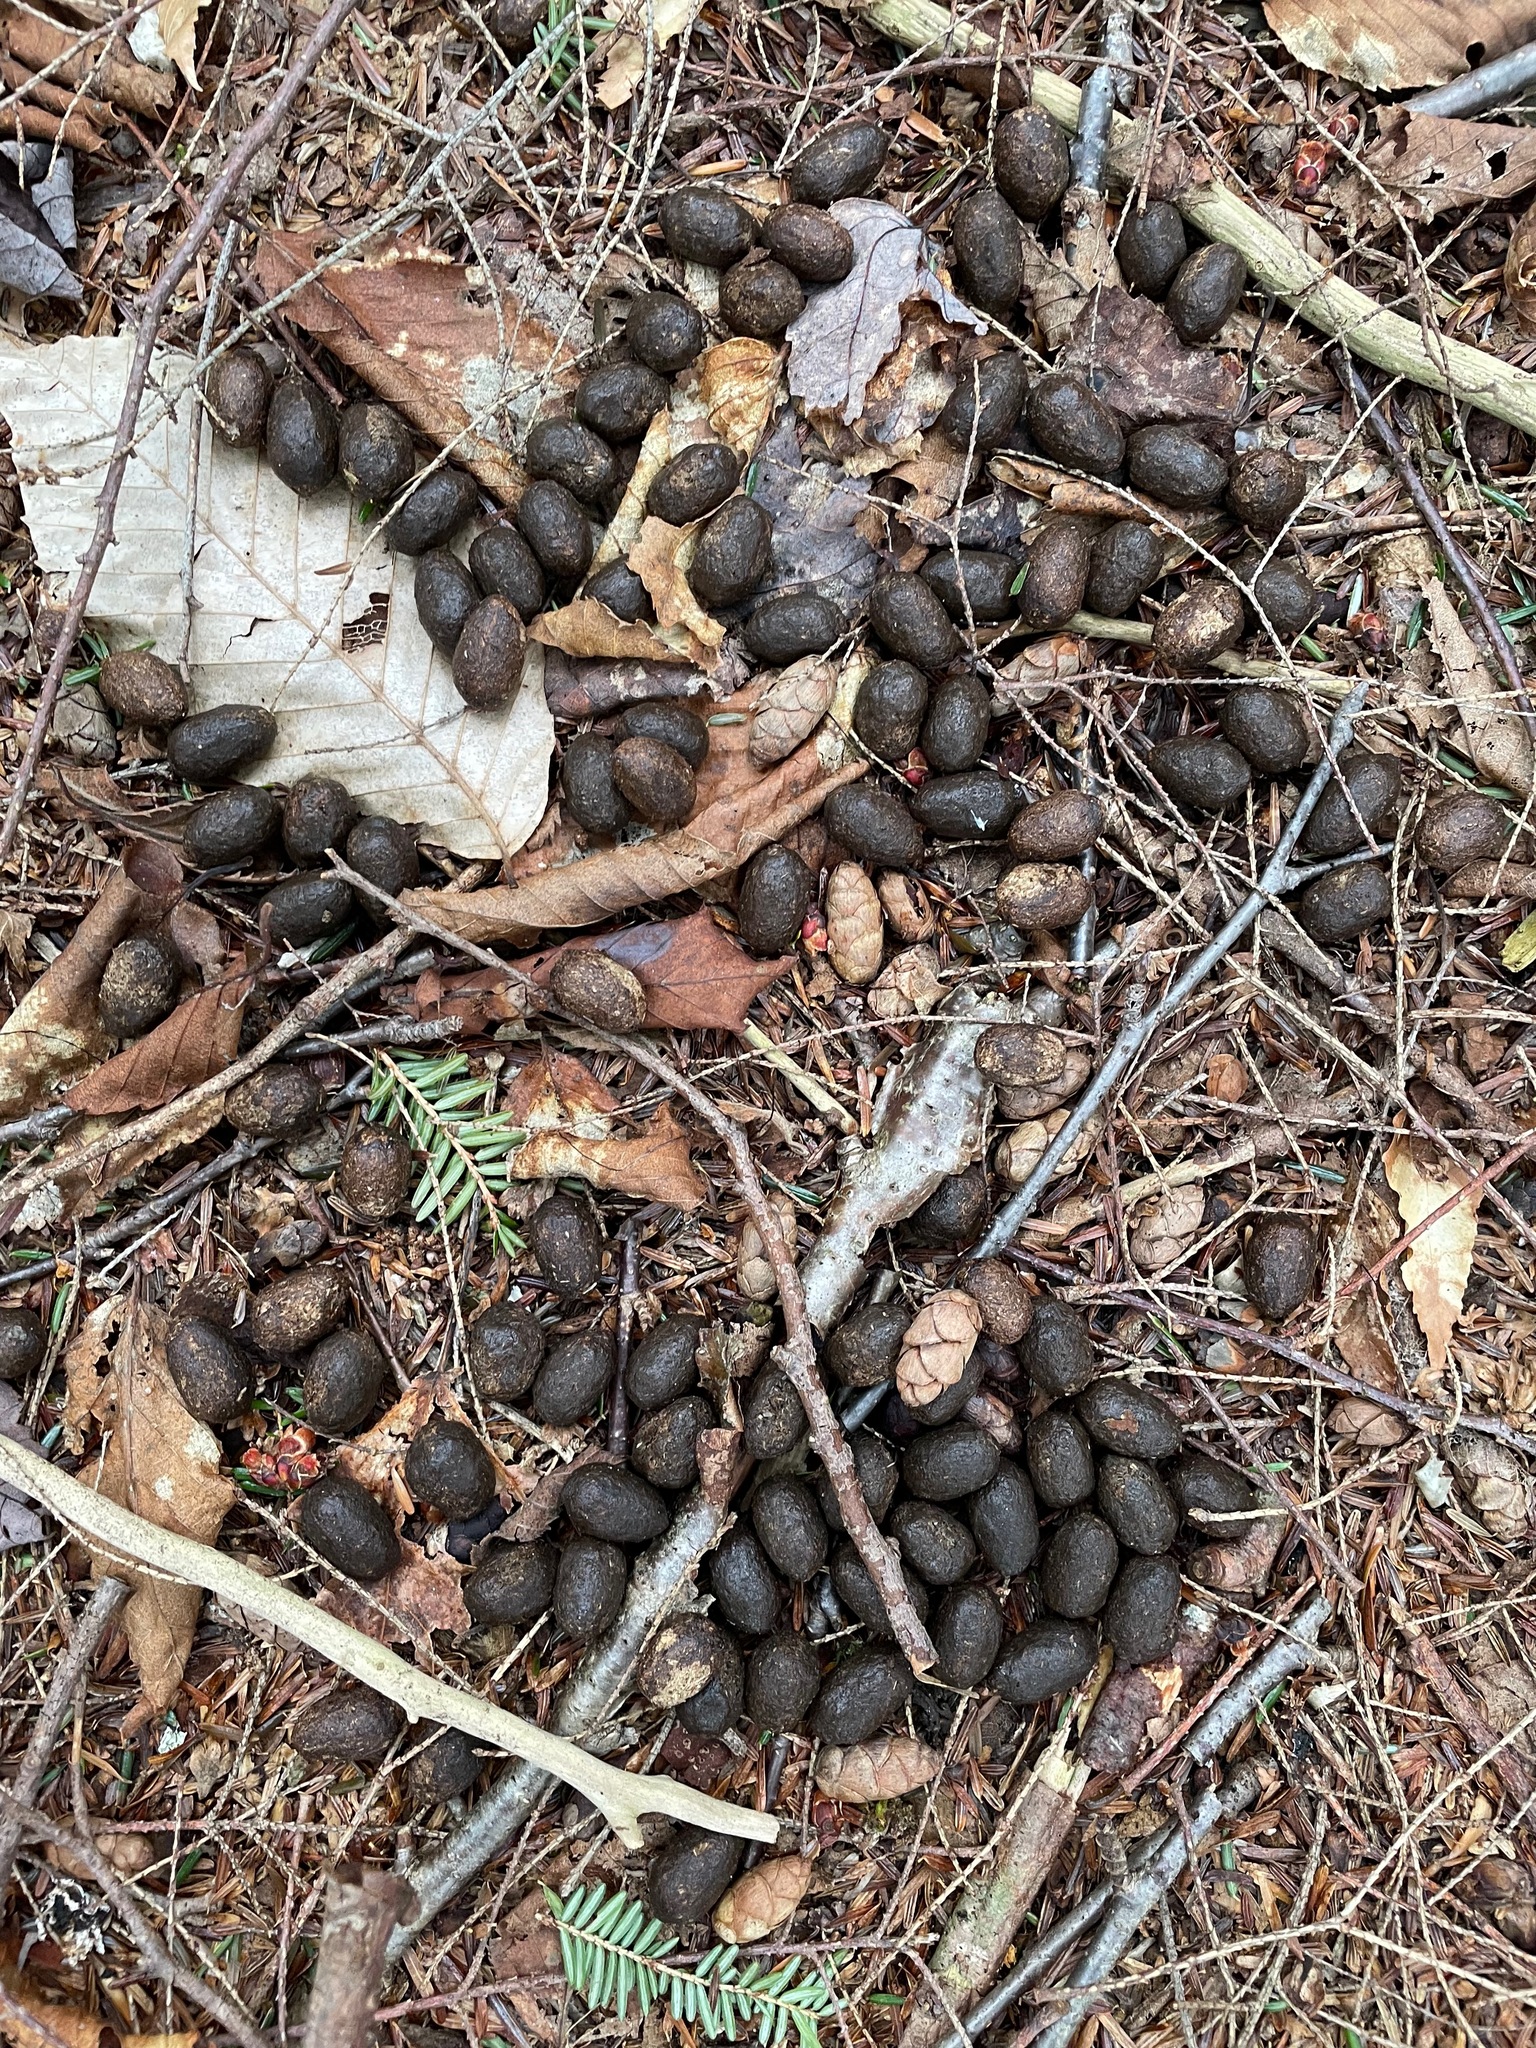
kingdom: Animalia
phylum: Chordata
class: Mammalia
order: Artiodactyla
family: Cervidae
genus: Odocoileus
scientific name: Odocoileus virginianus
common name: White-tailed deer
